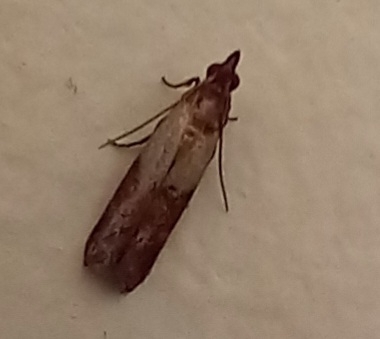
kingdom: Animalia
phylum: Arthropoda
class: Insecta
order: Lepidoptera
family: Pyralidae
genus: Plodia
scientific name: Plodia interpunctella
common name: Indian meal moth
